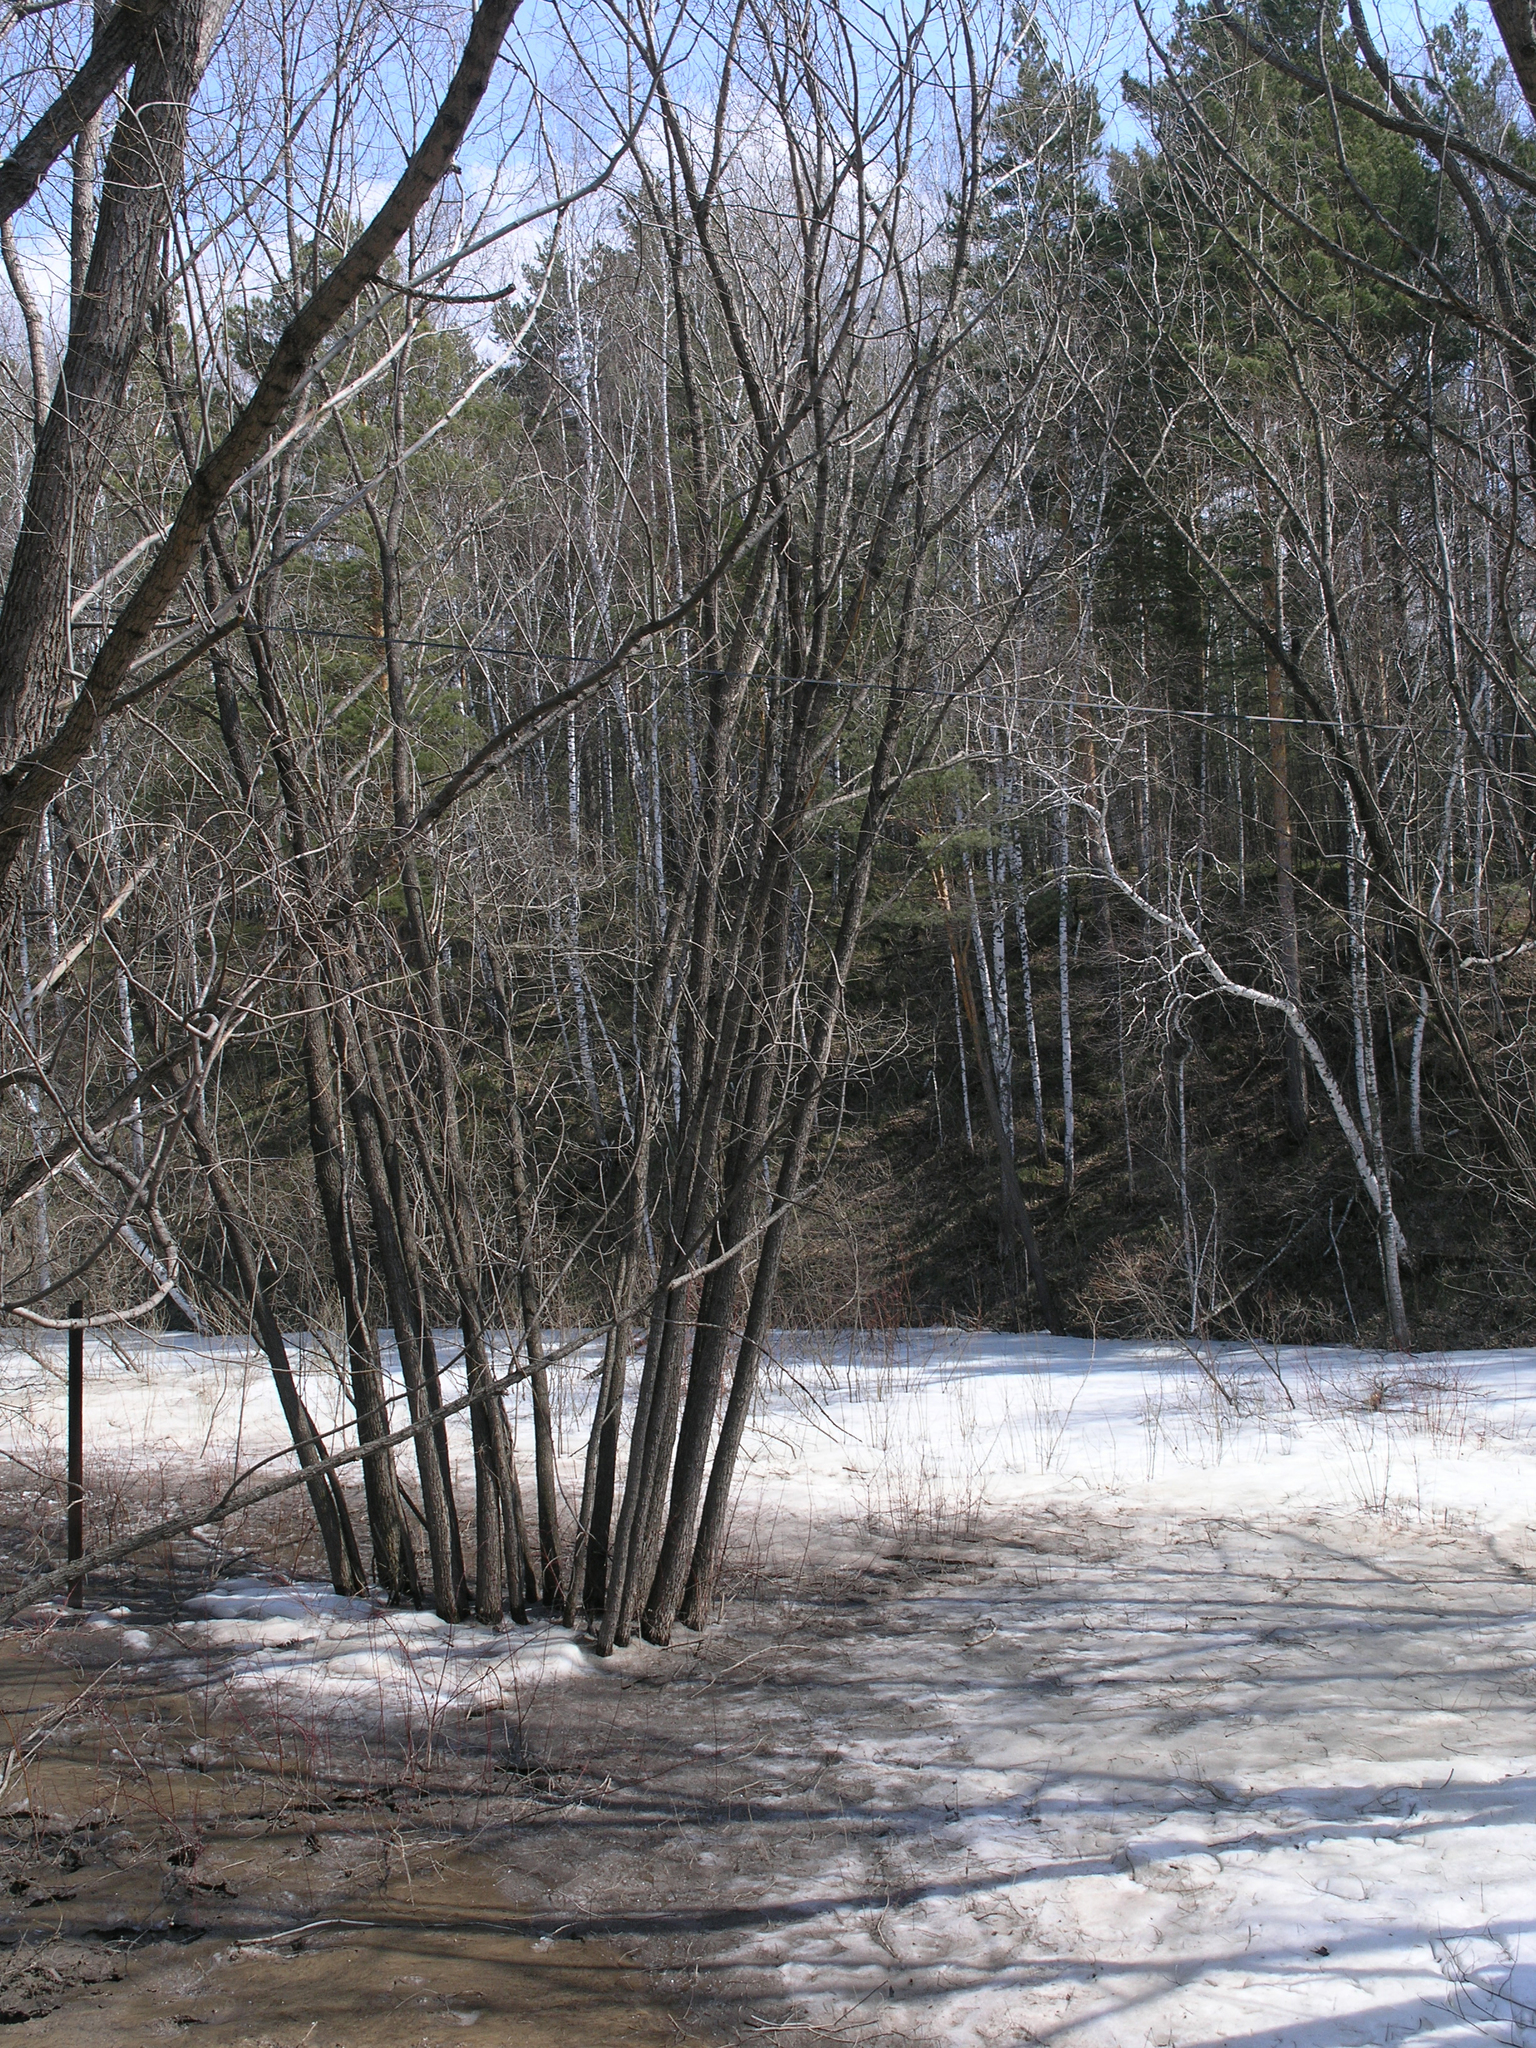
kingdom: Plantae
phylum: Tracheophyta
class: Magnoliopsida
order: Malpighiales
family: Salicaceae
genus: Salix
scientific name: Salix pentandra
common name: Bay willow
